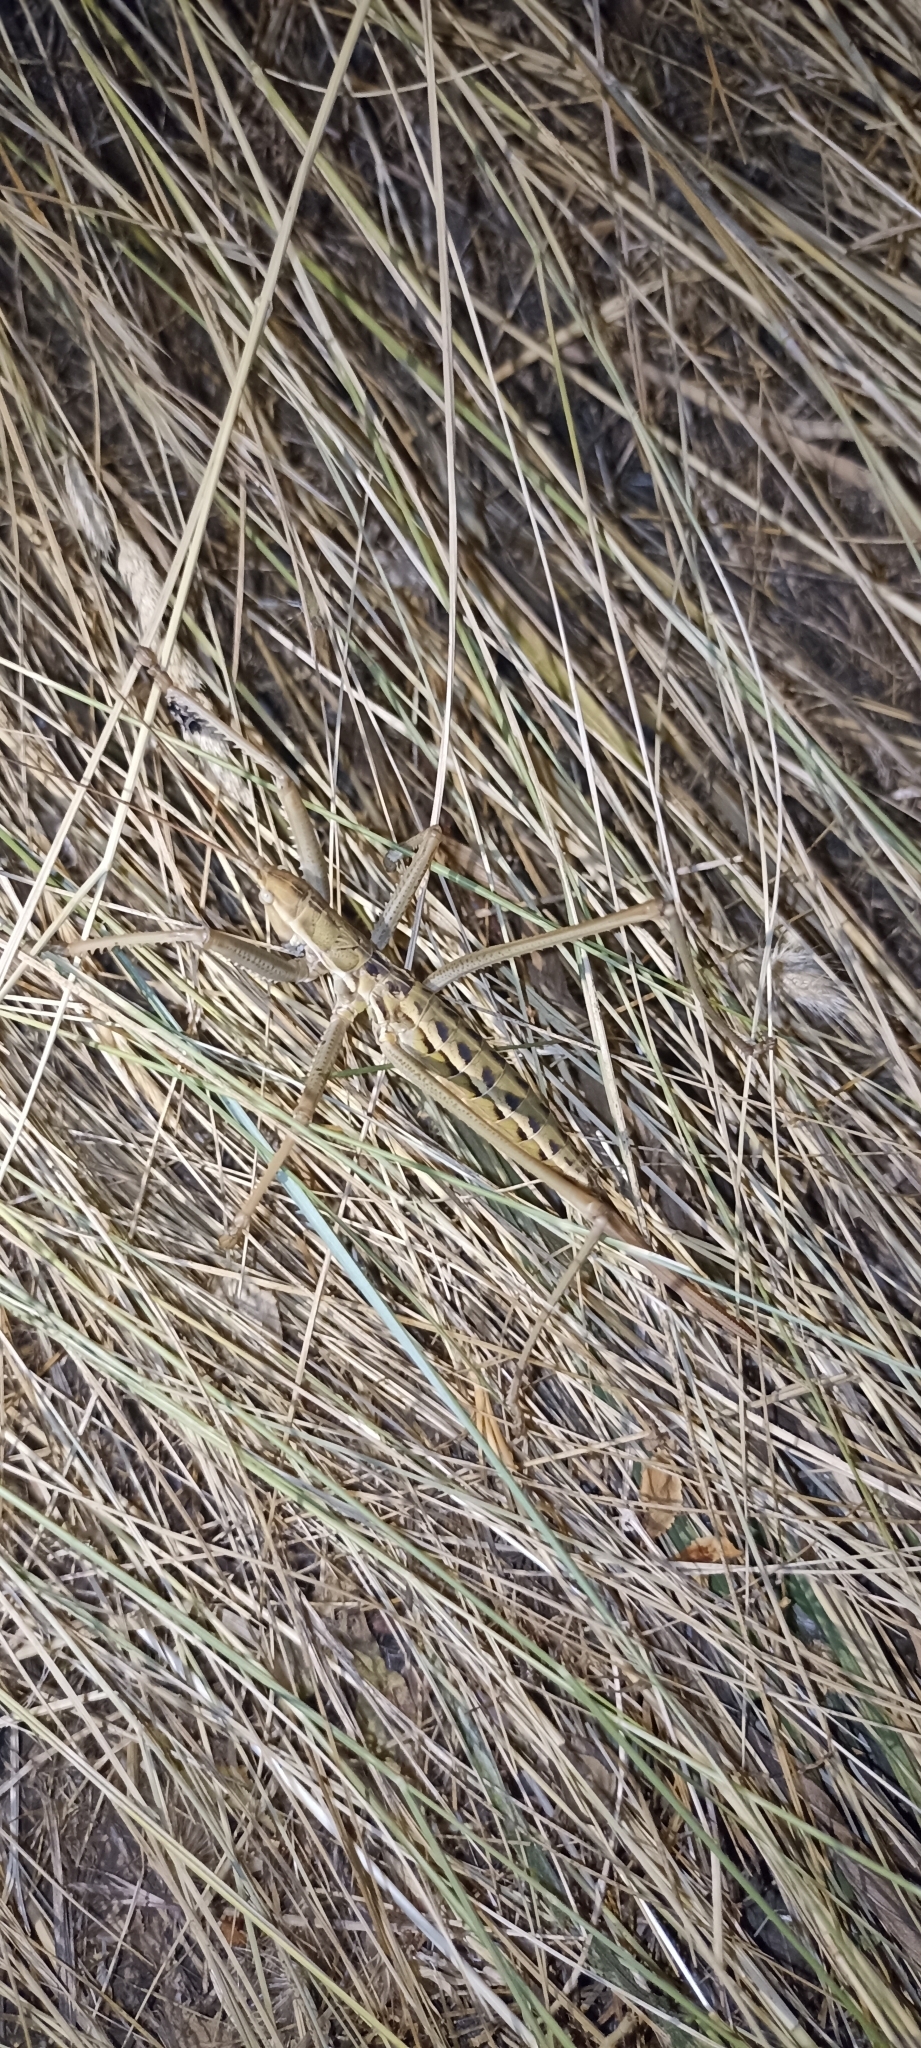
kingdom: Animalia
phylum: Arthropoda
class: Insecta
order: Orthoptera
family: Tettigoniidae
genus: Saga
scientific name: Saga pedo
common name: Common predatory bush-cricket
